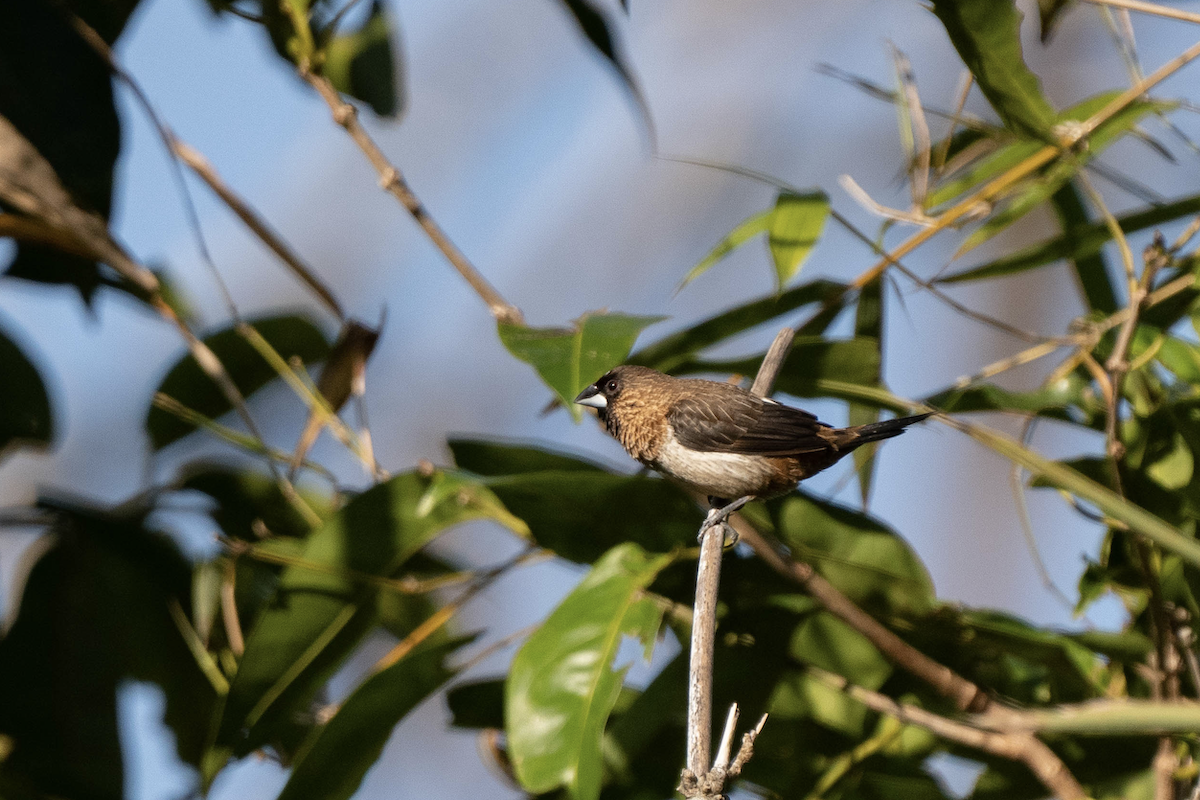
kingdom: Animalia
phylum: Chordata
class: Aves
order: Passeriformes
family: Estrildidae
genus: Lonchura
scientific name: Lonchura striata
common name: White-rumped munia
